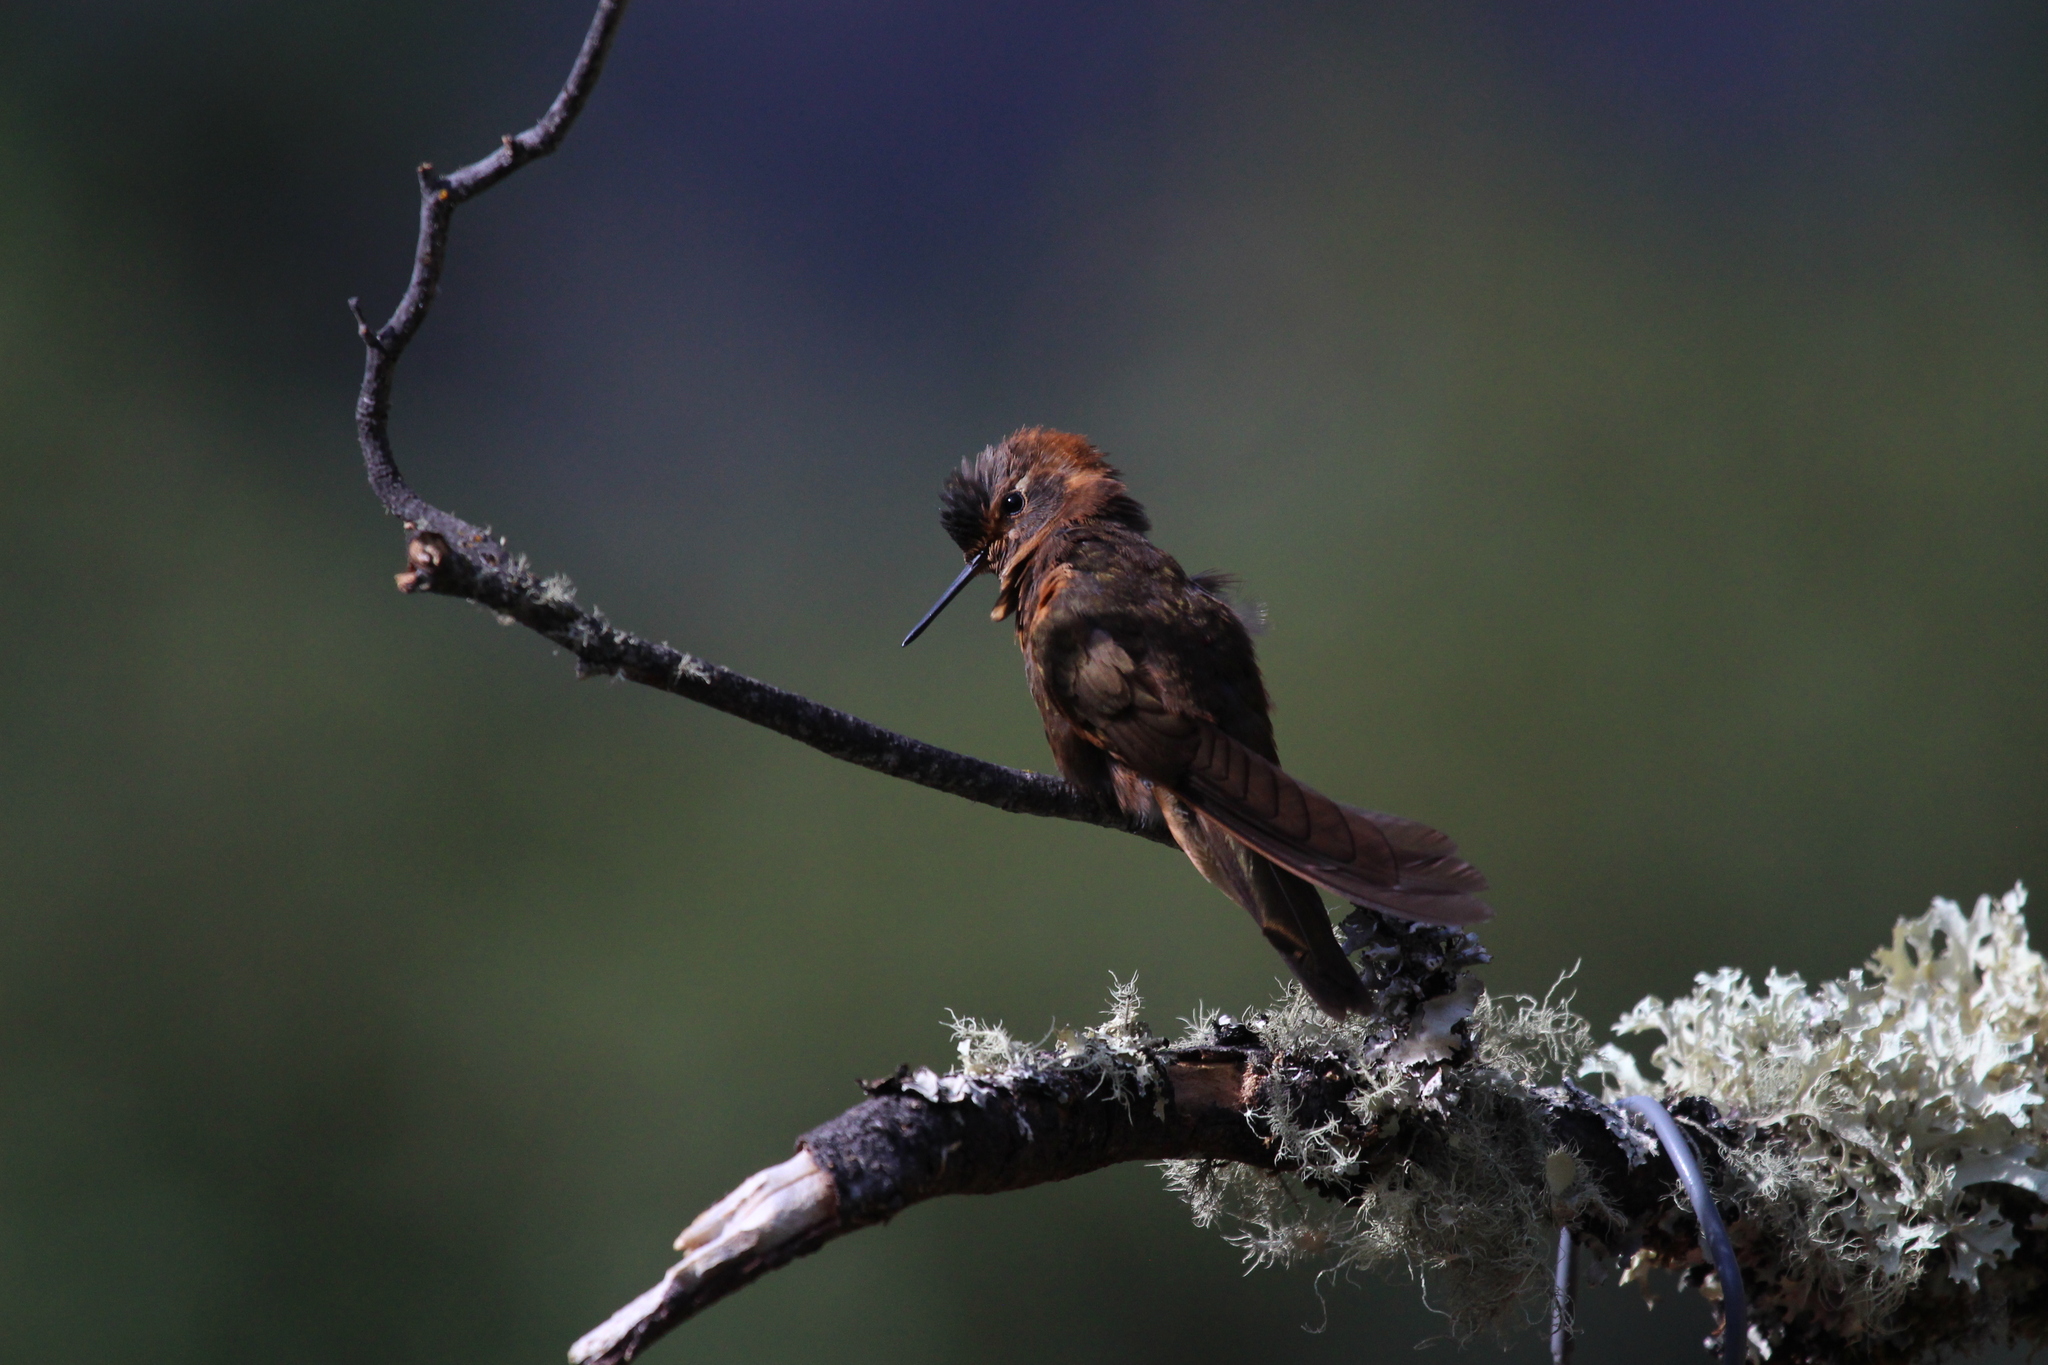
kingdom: Animalia
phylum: Chordata
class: Aves
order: Apodiformes
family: Trochilidae
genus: Aglaeactis
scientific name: Aglaeactis cupripennis
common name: Shining sunbeam
